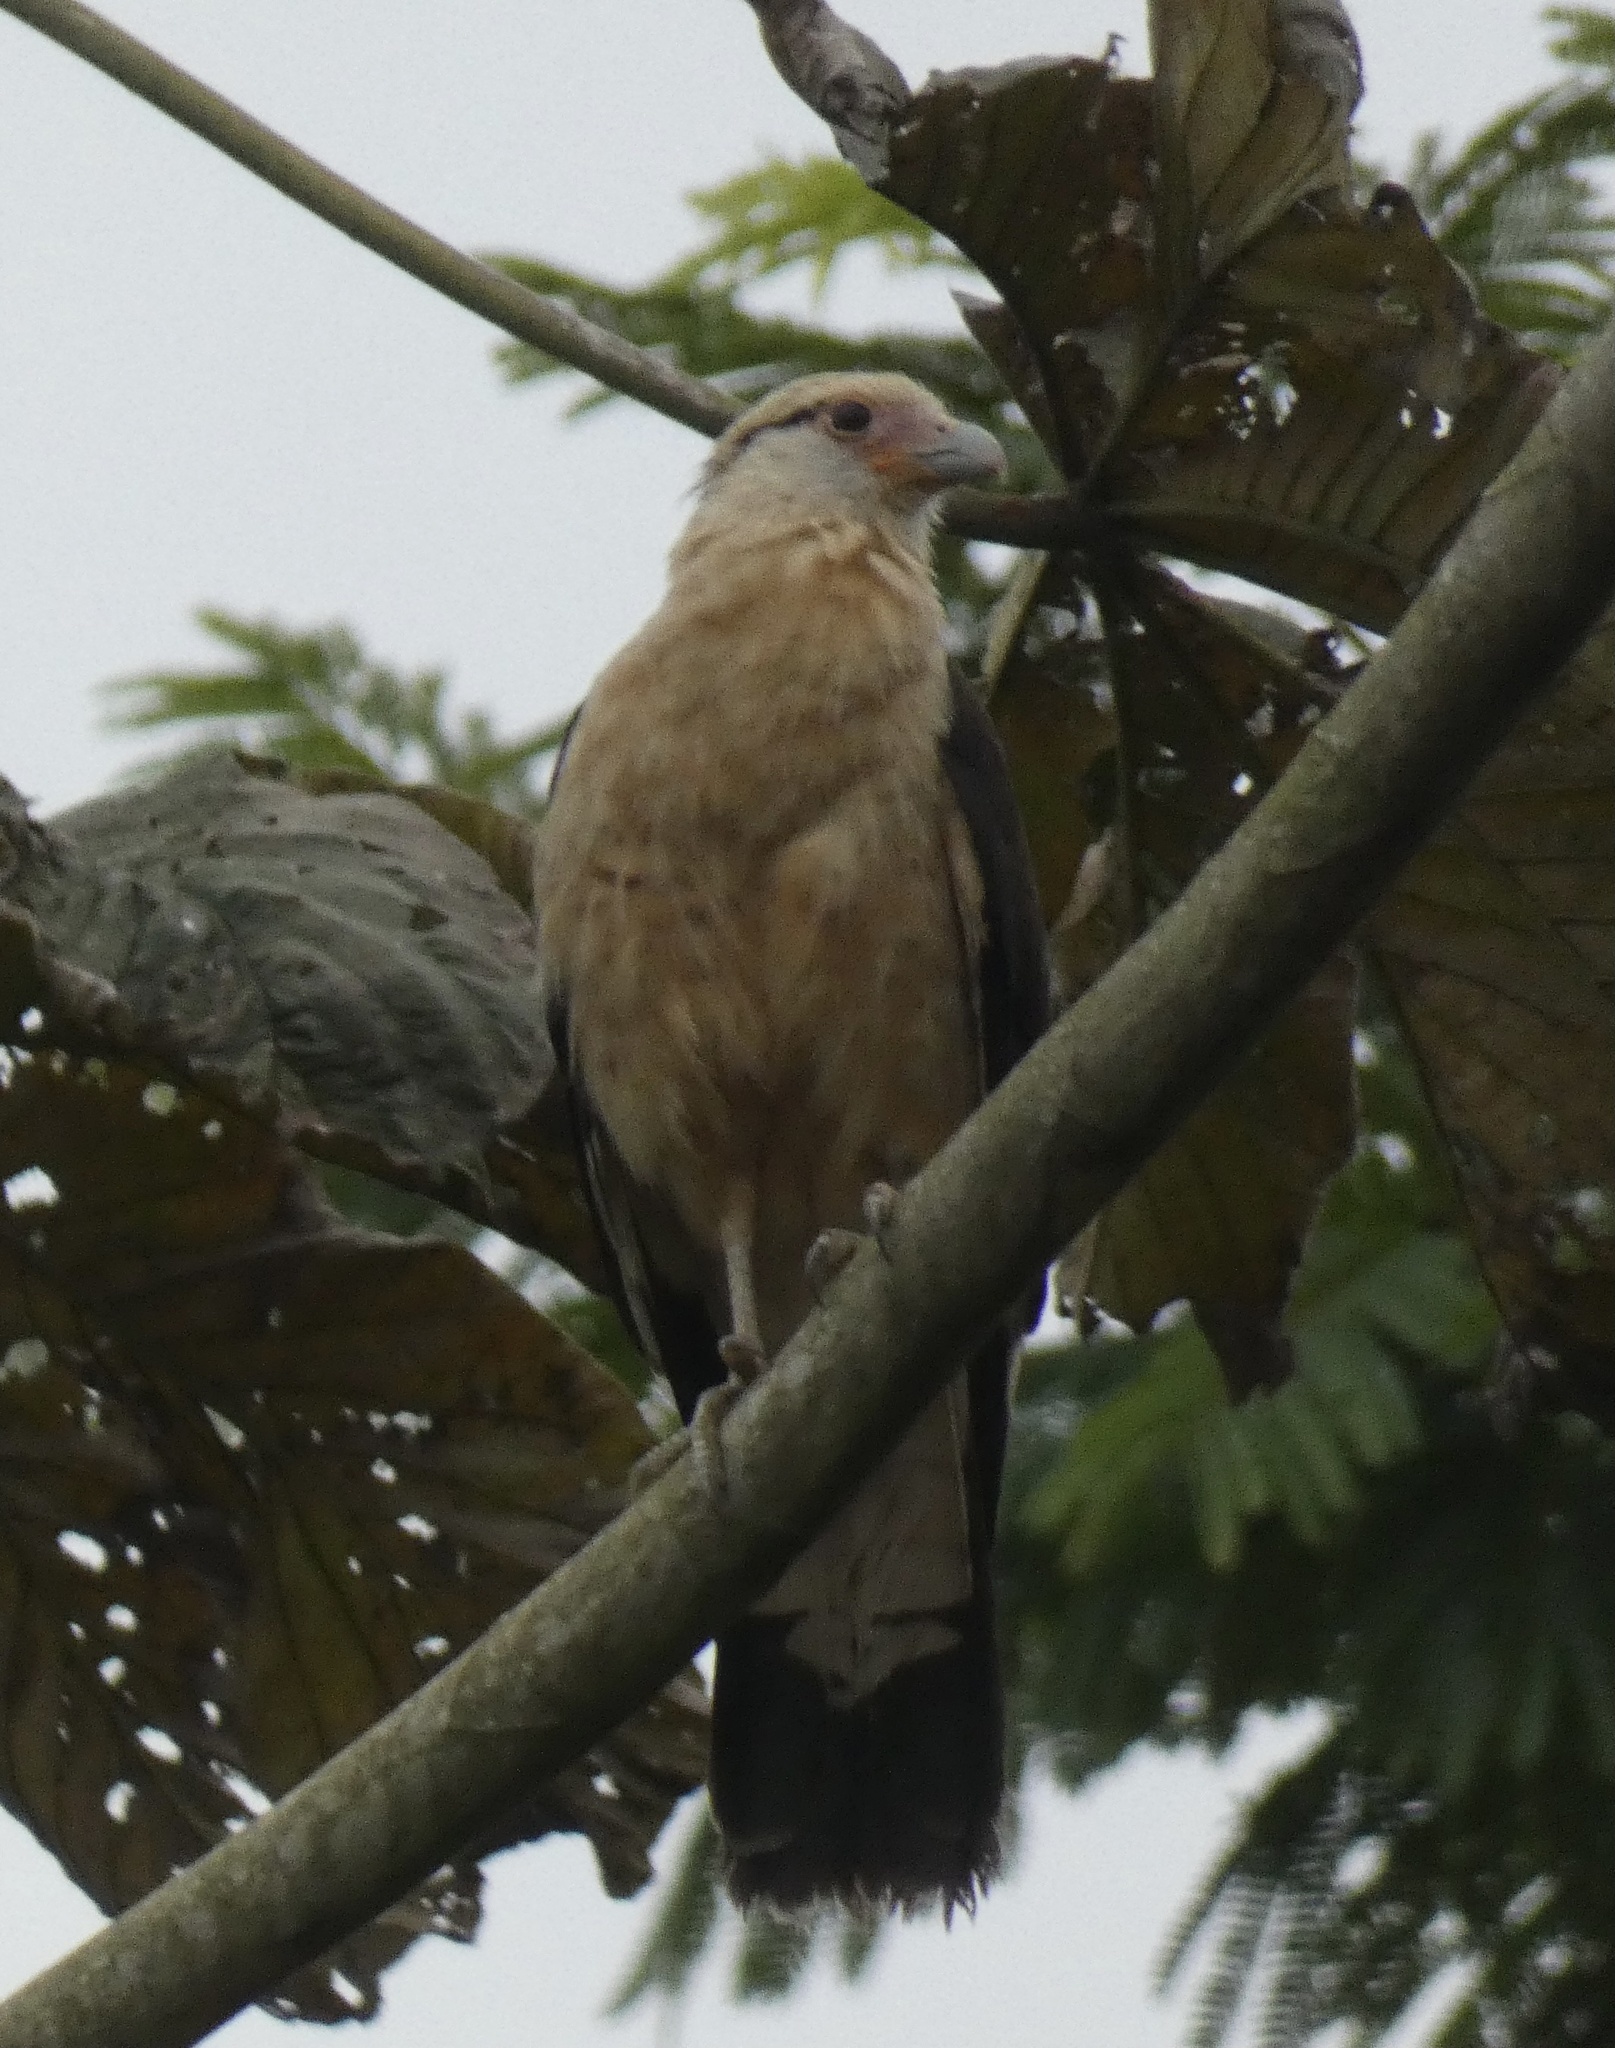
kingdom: Animalia
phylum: Chordata
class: Aves
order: Falconiformes
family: Falconidae
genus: Daptrius
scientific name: Daptrius
